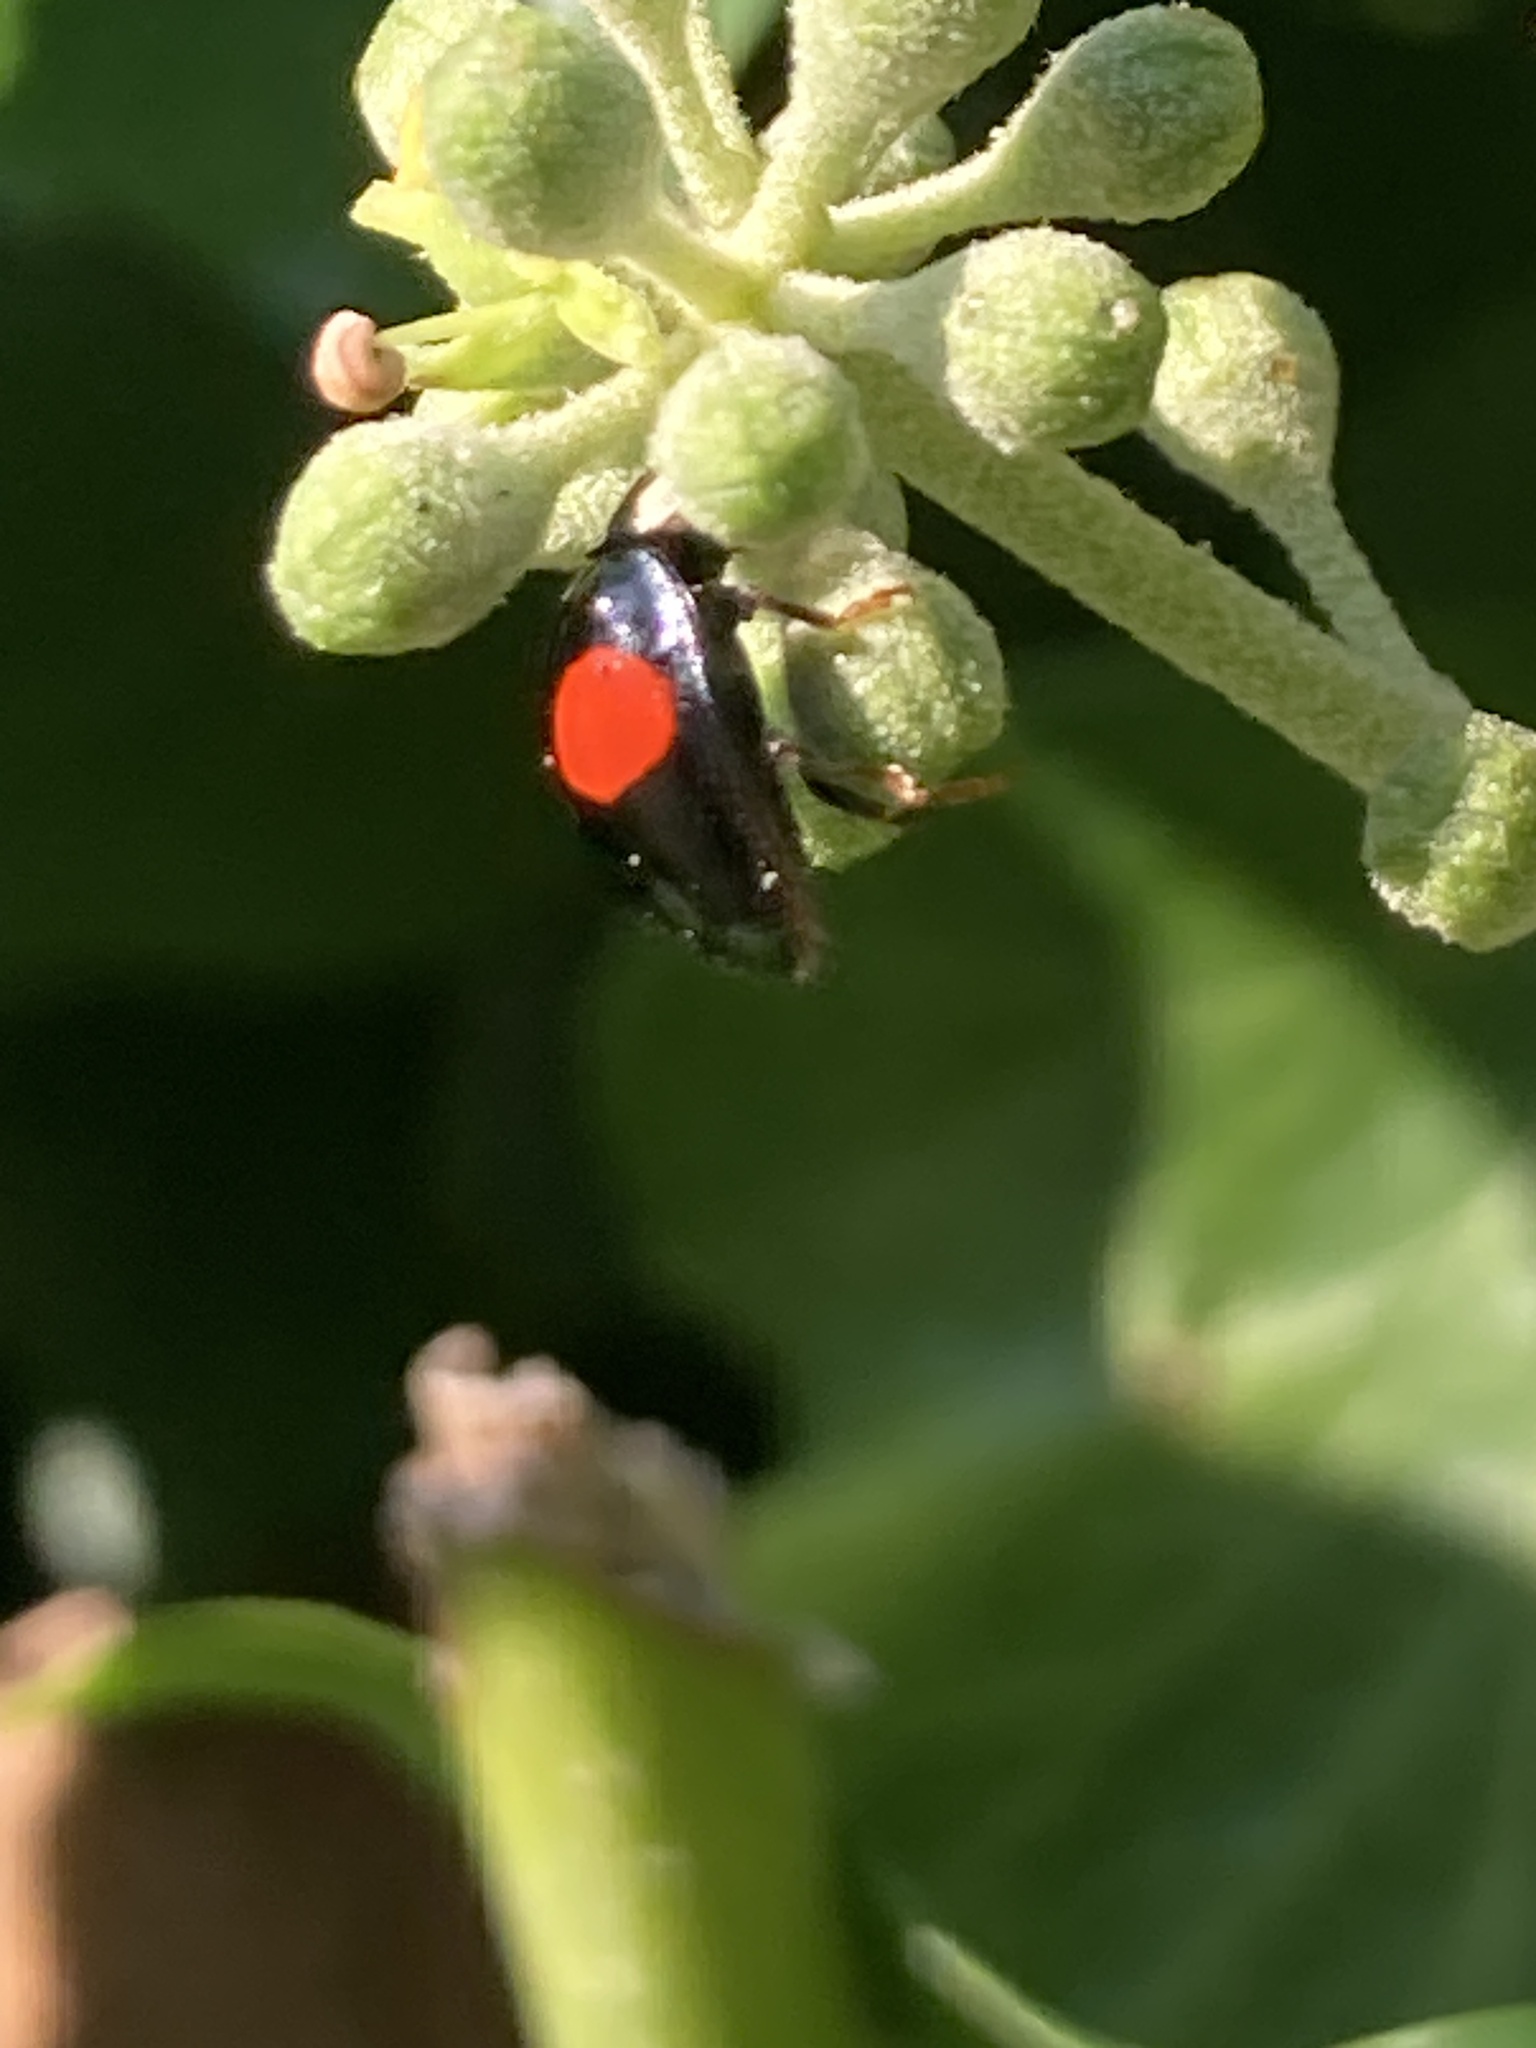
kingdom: Animalia
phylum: Arthropoda
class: Insecta
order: Coleoptera
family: Coccinellidae
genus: Harmonia
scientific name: Harmonia axyridis
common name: Harlequin ladybird
